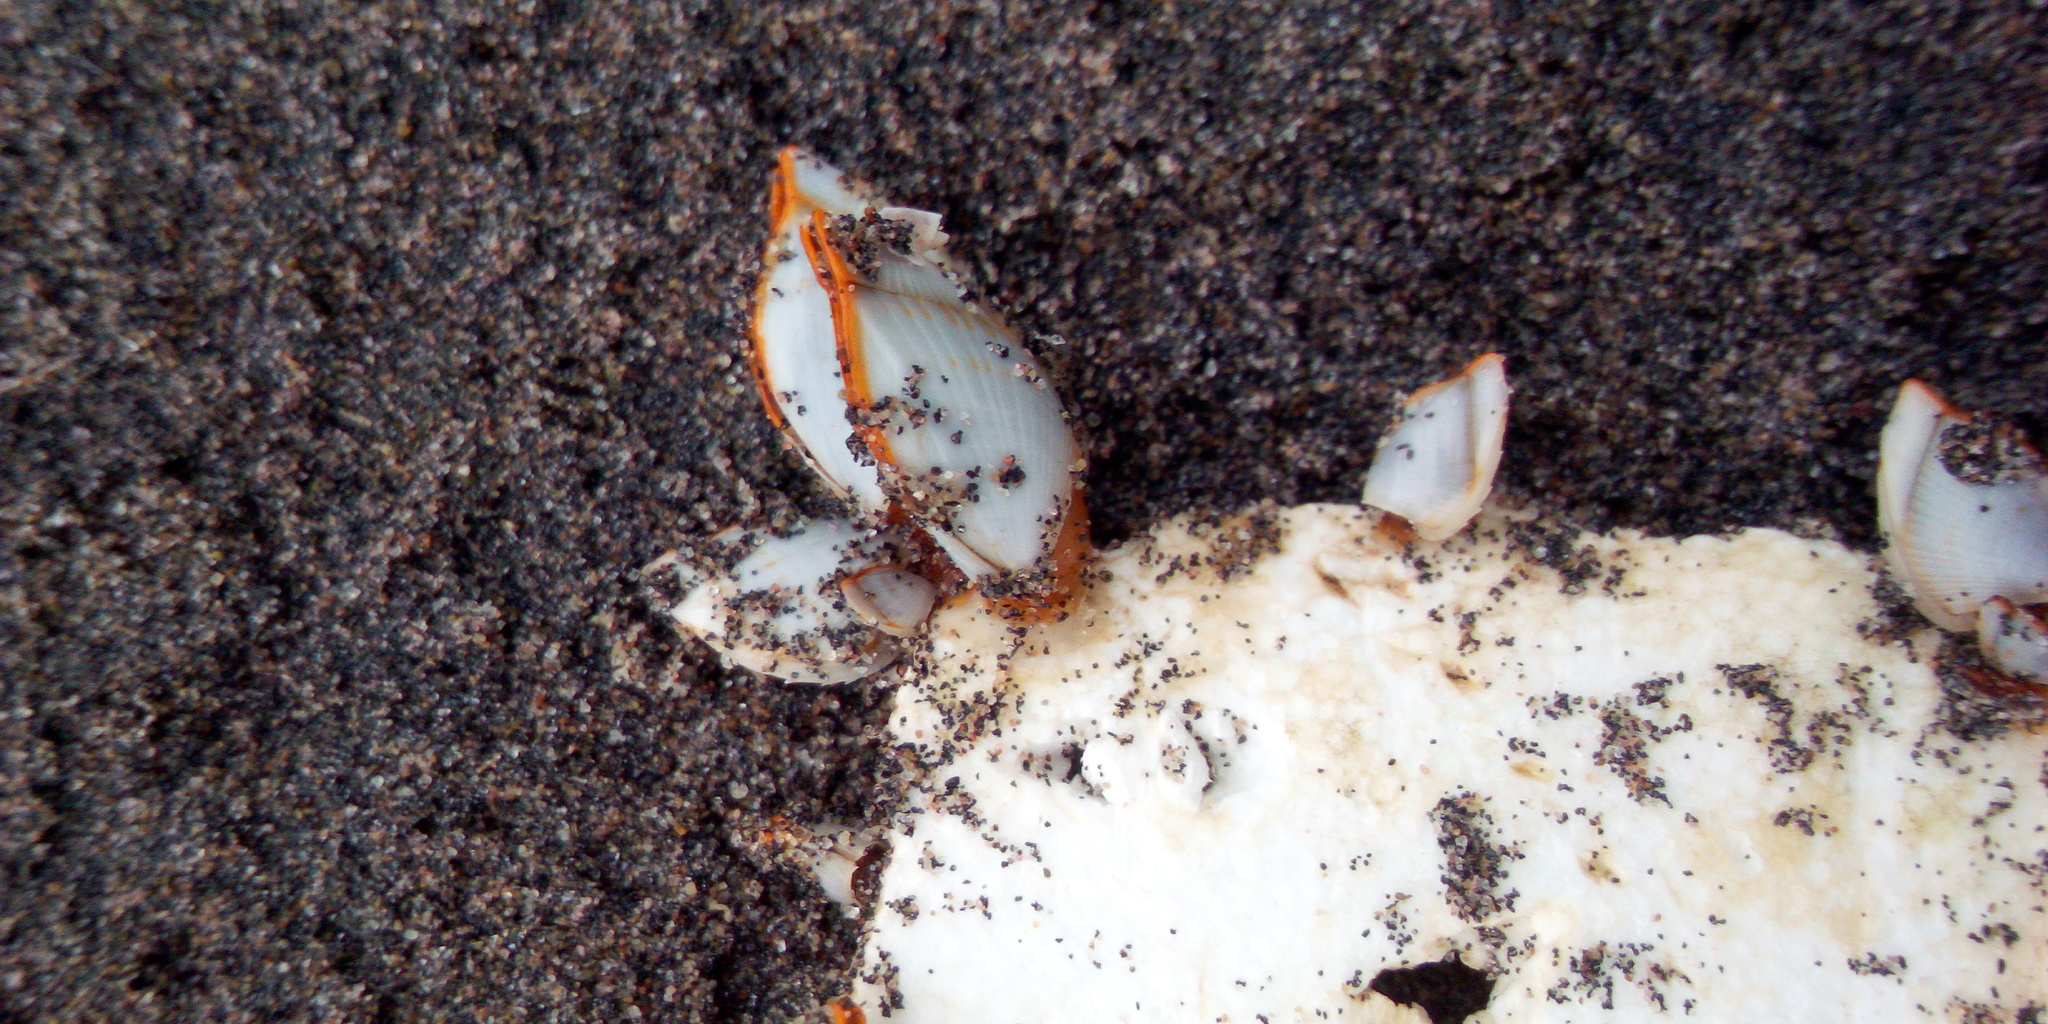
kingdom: Animalia
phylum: Arthropoda
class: Maxillopoda
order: Pedunculata
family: Lepadidae
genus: Lepas
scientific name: Lepas anserifera
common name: Goose barnacle
